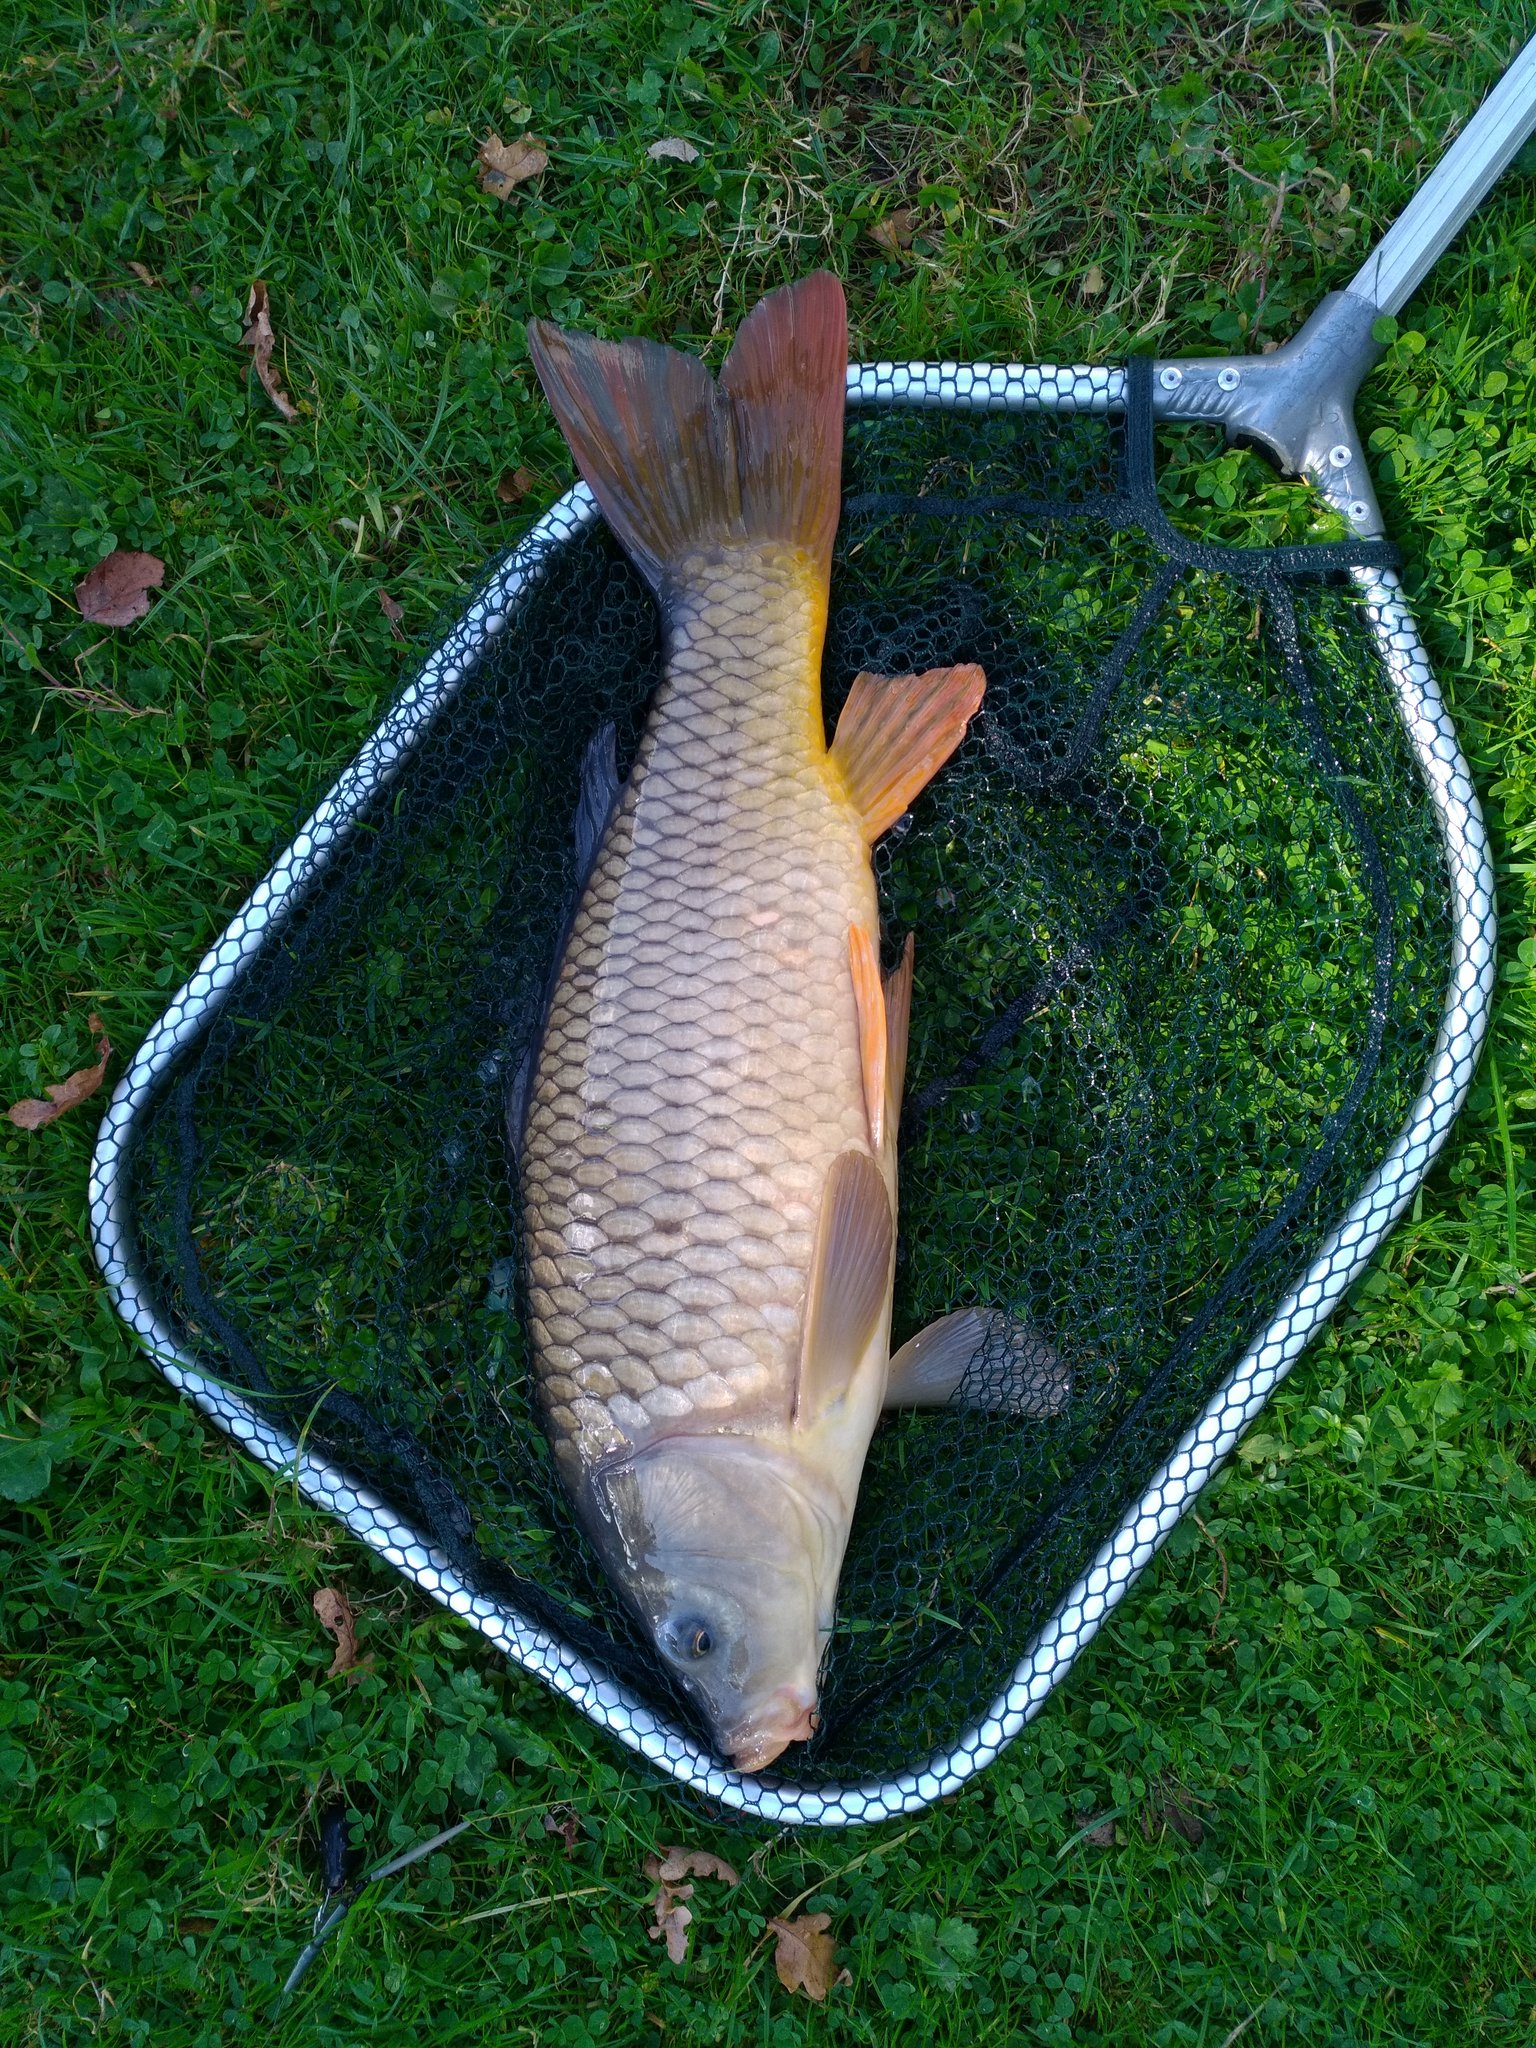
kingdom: Animalia
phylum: Chordata
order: Cypriniformes
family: Cyprinidae
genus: Cyprinus
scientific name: Cyprinus carpio
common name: Common carp
